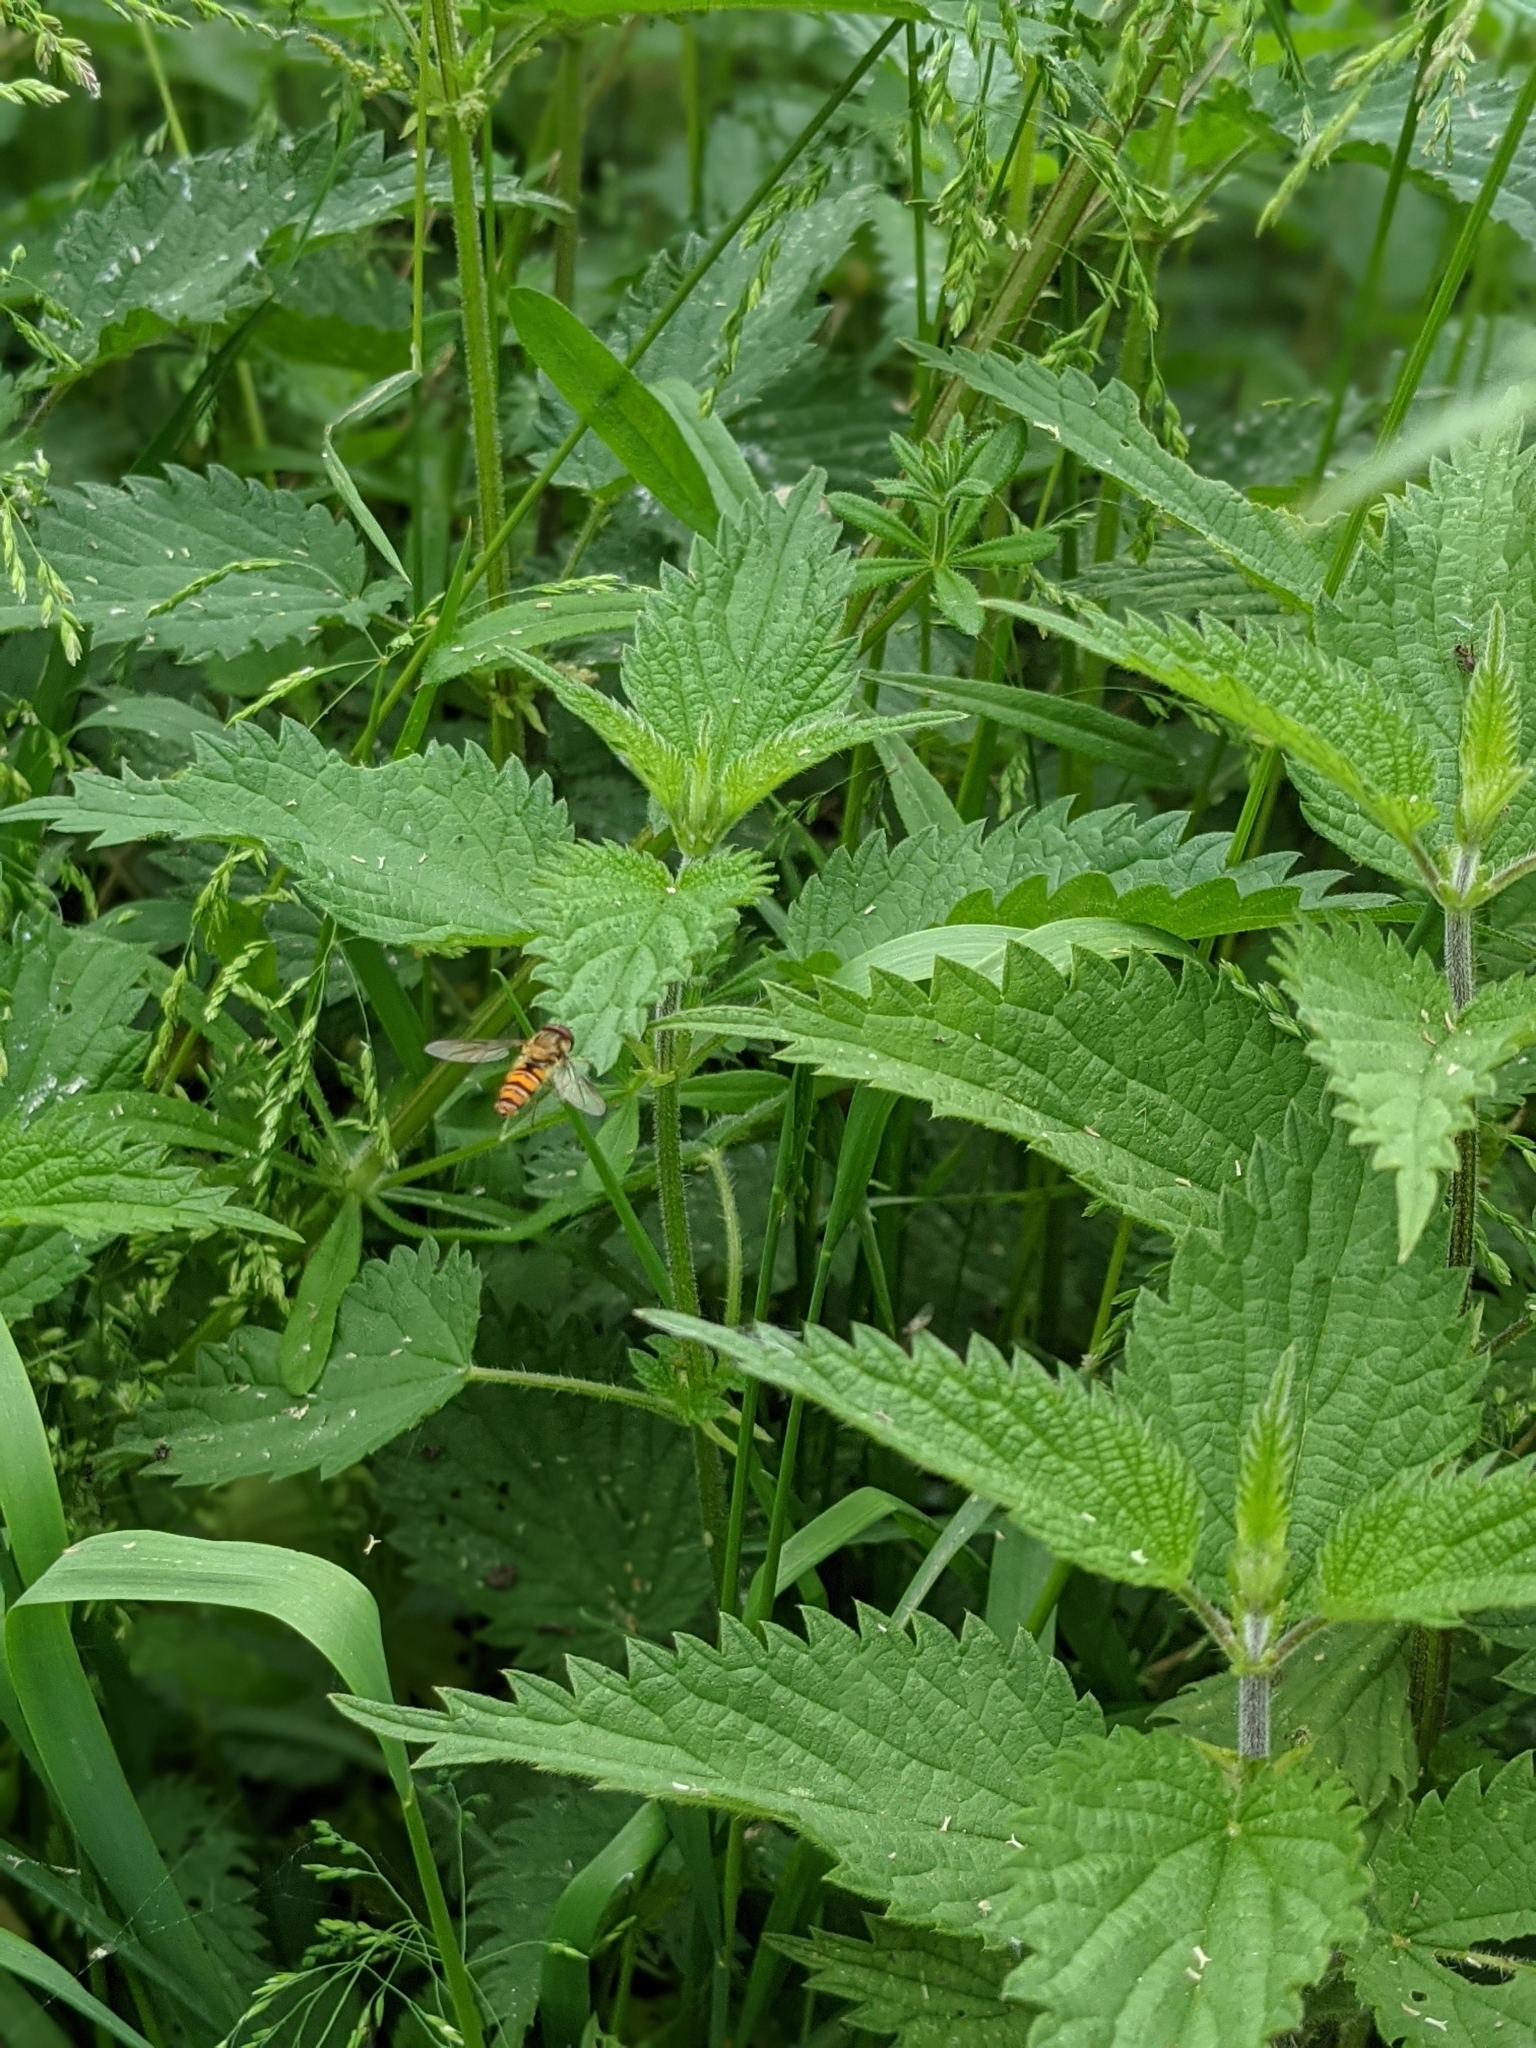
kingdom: Animalia
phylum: Arthropoda
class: Insecta
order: Diptera
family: Syrphidae
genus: Episyrphus
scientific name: Episyrphus balteatus
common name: Marmalade hoverfly
